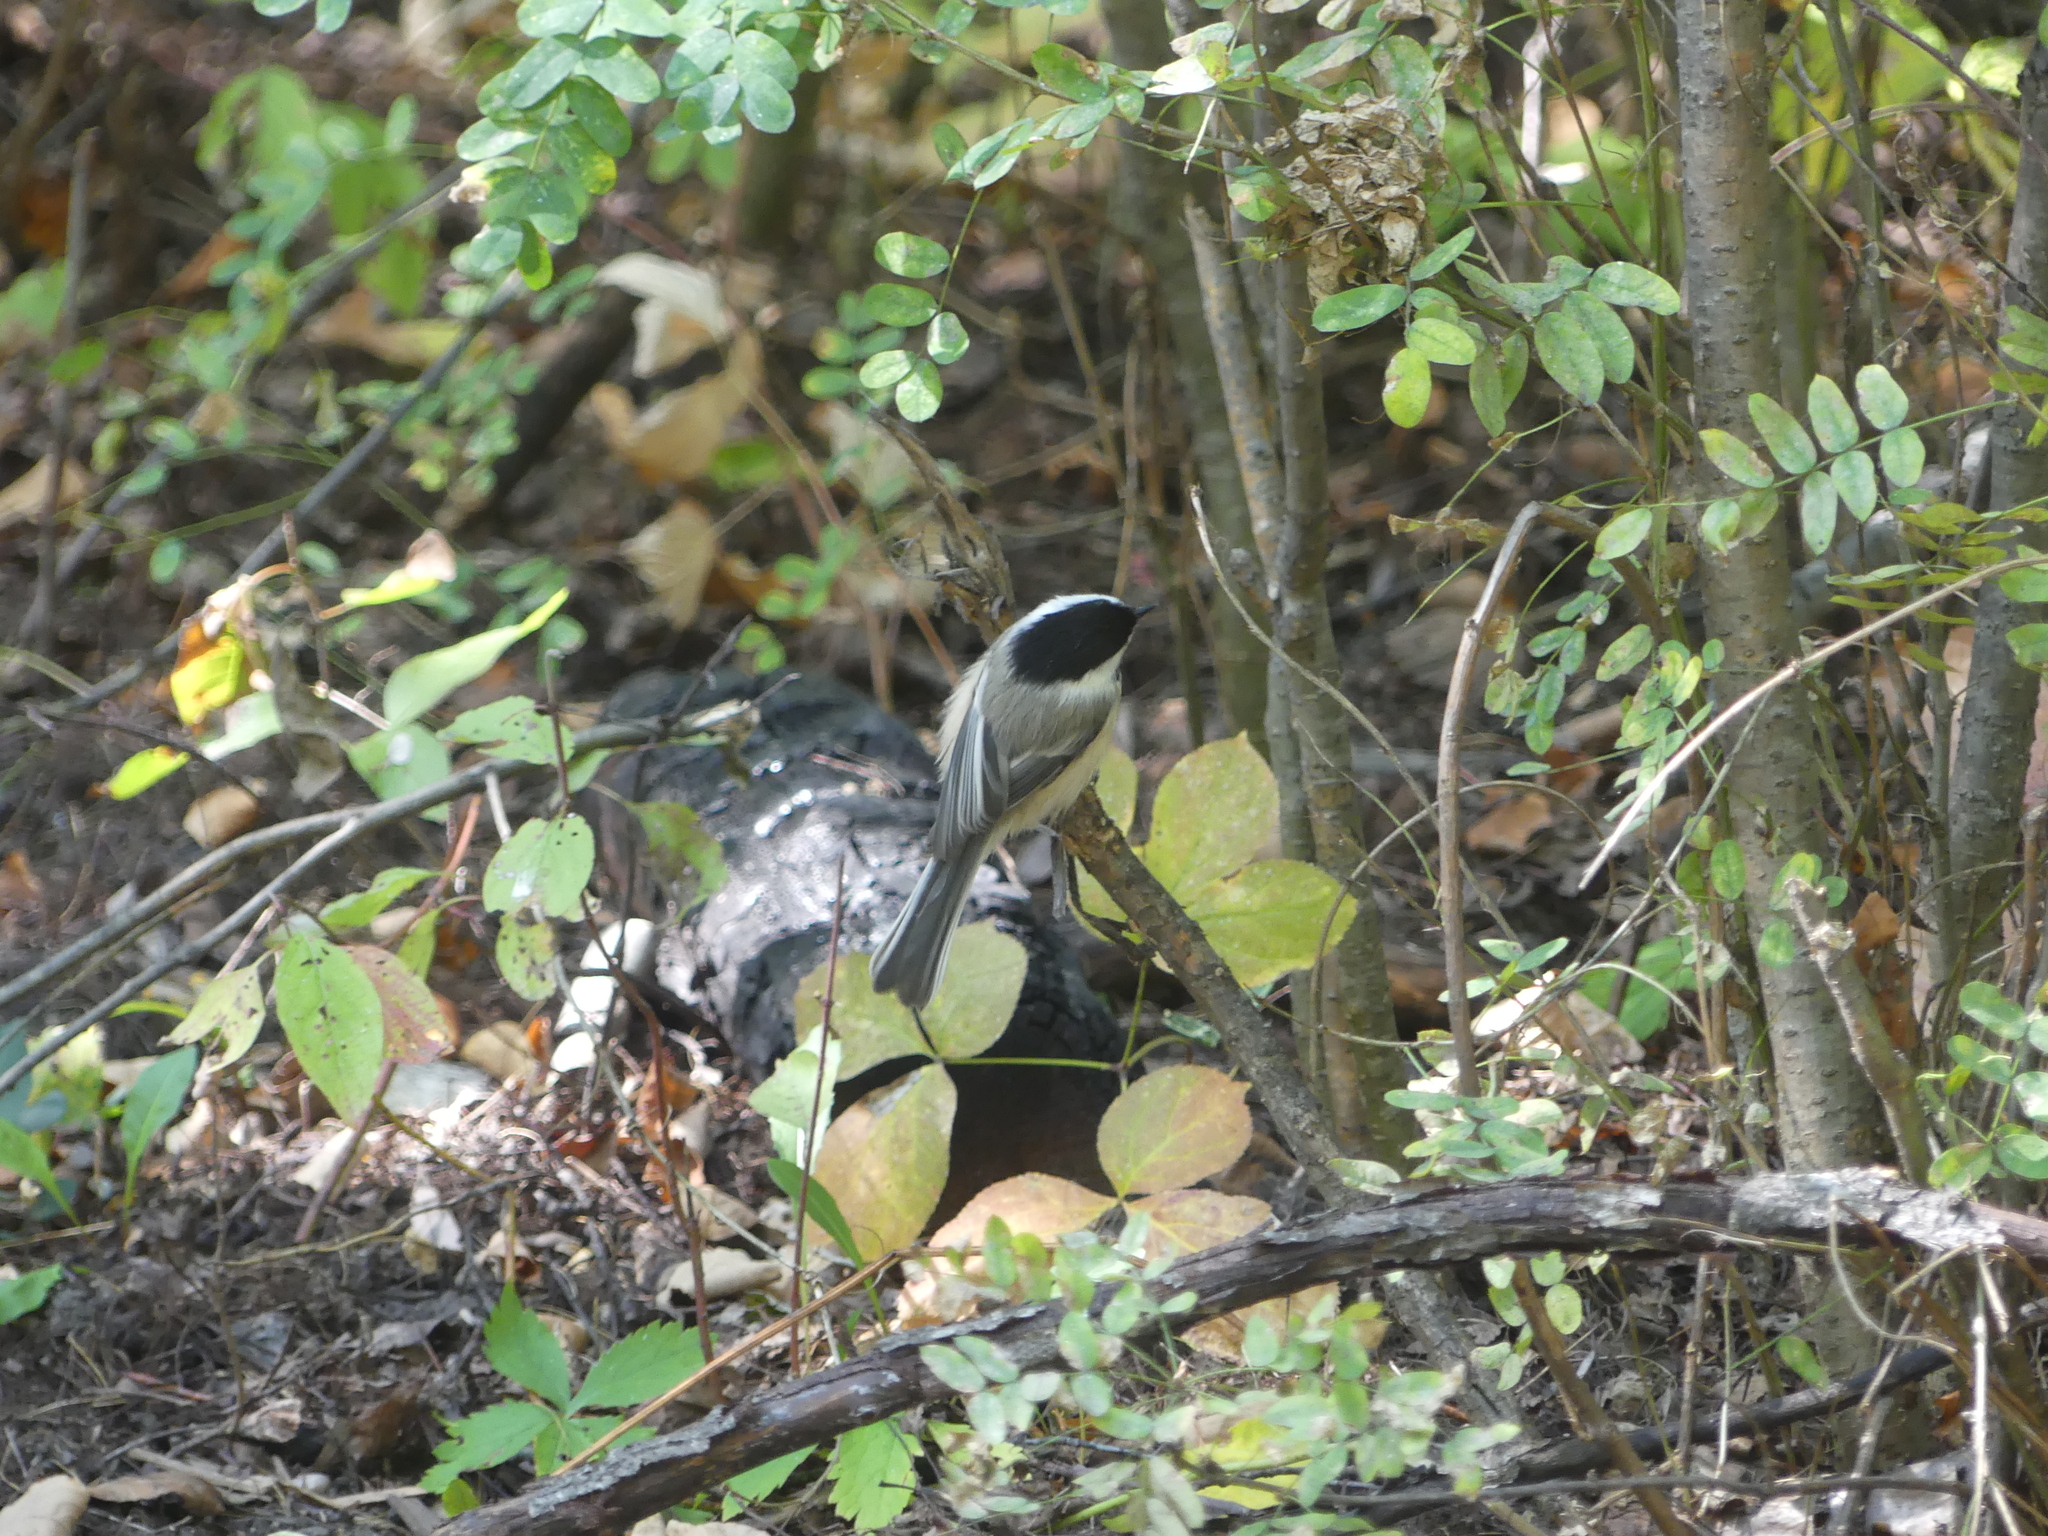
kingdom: Animalia
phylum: Chordata
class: Aves
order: Passeriformes
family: Paridae
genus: Poecile
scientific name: Poecile atricapillus
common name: Black-capped chickadee
